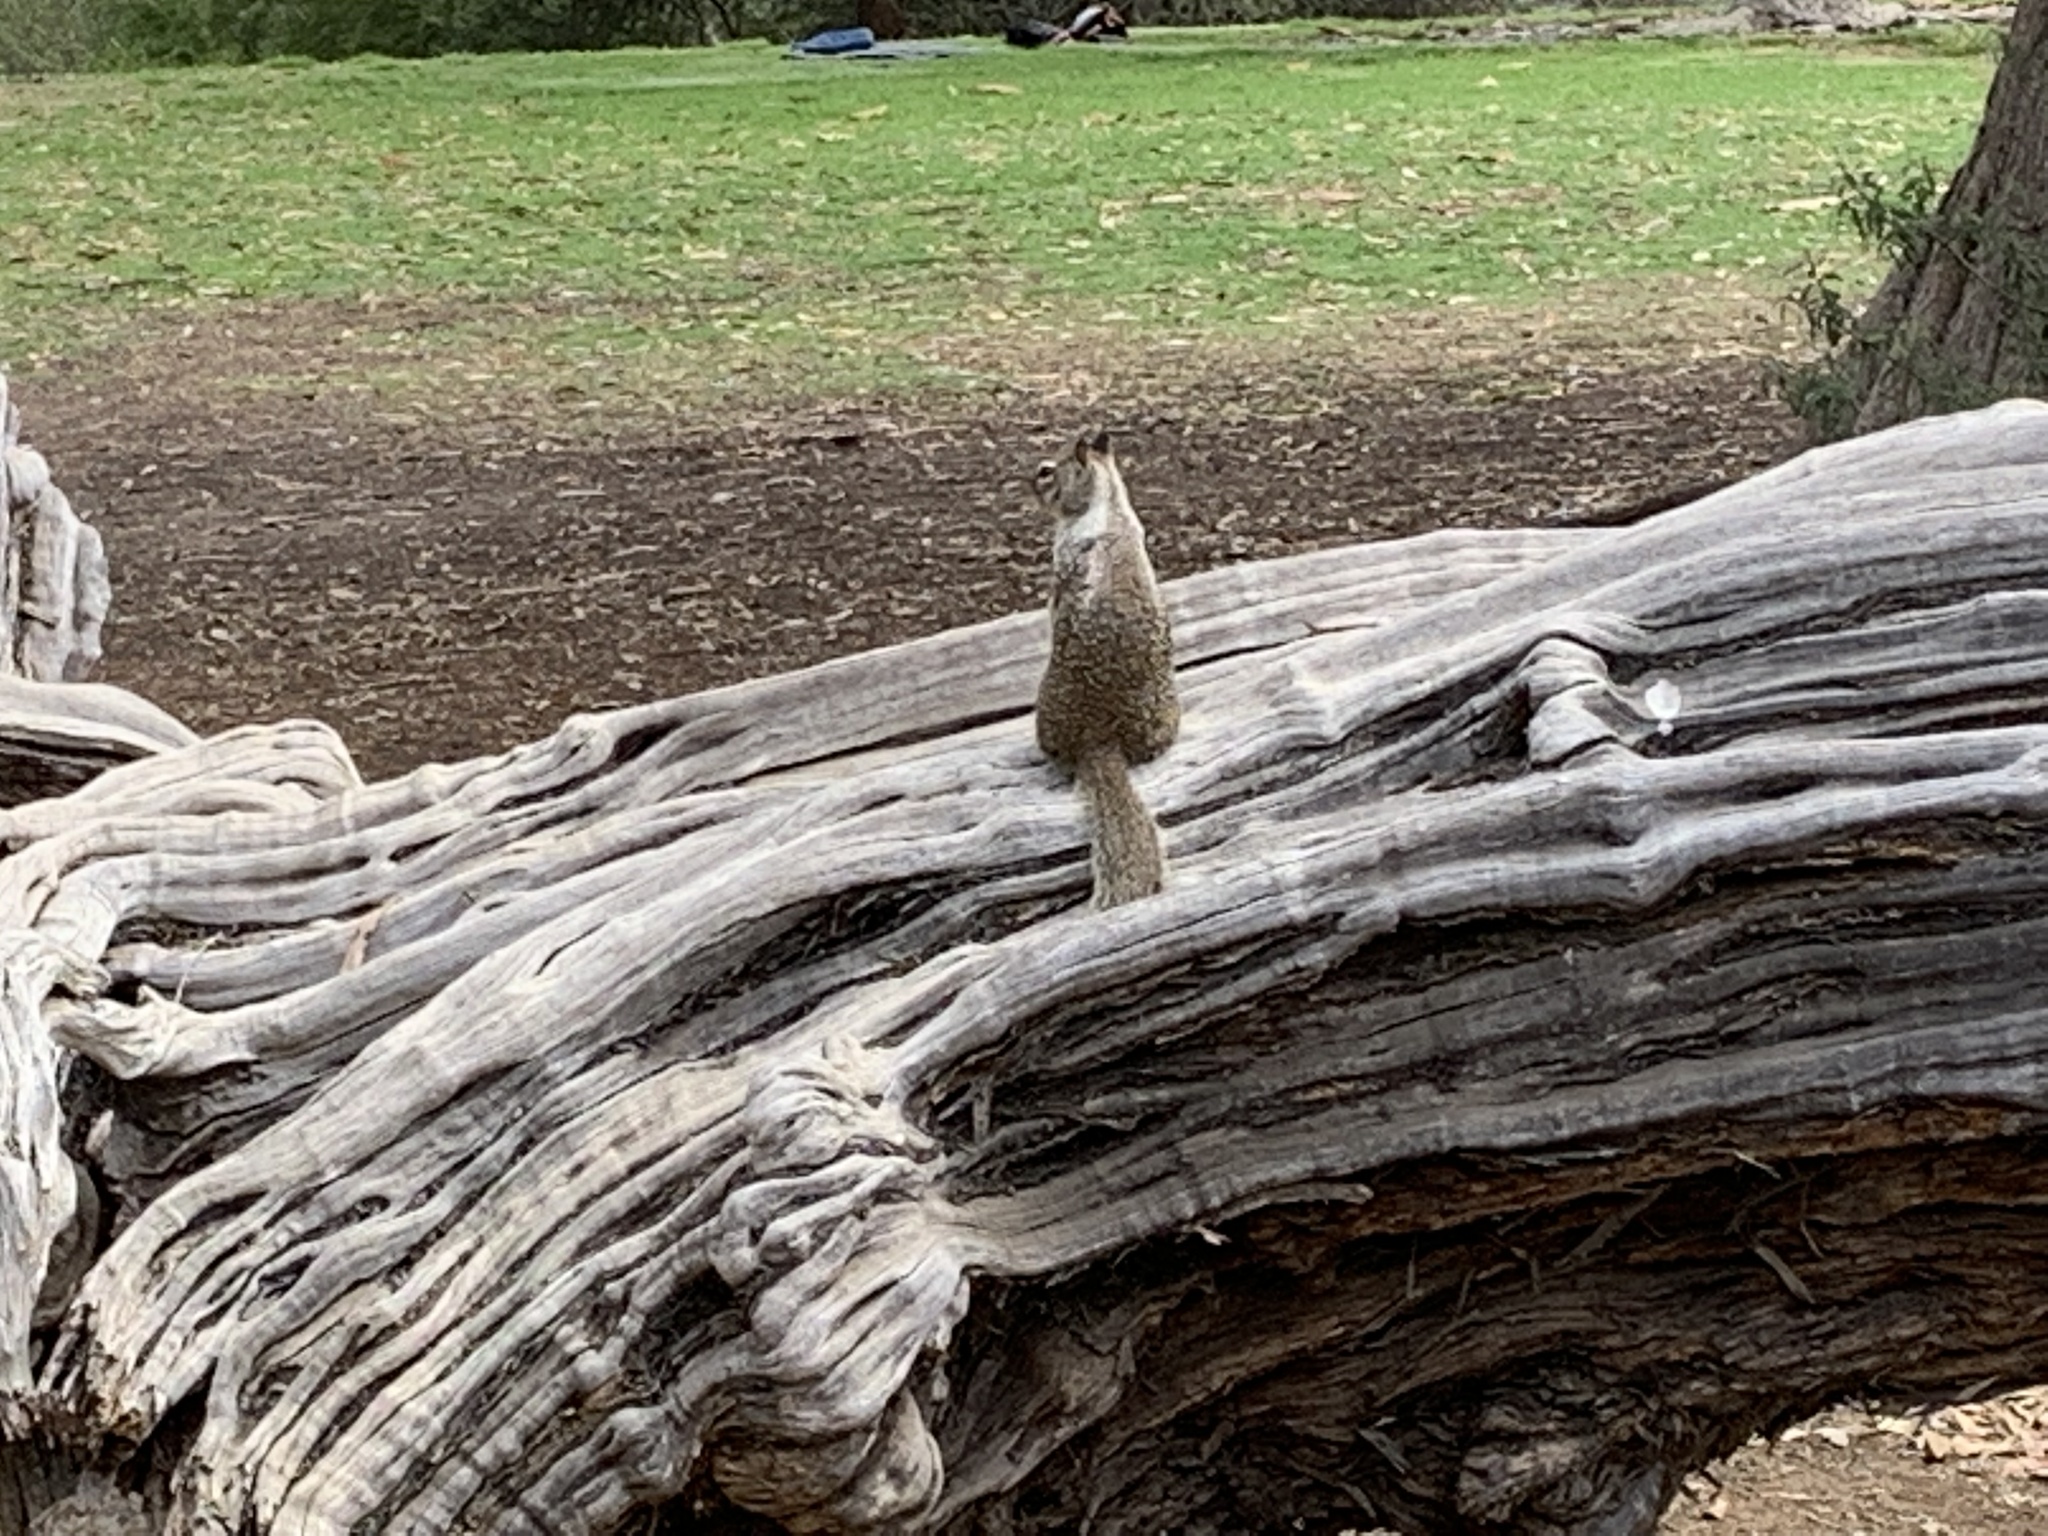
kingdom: Animalia
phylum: Chordata
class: Mammalia
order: Rodentia
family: Sciuridae
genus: Otospermophilus
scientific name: Otospermophilus beecheyi
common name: California ground squirrel
